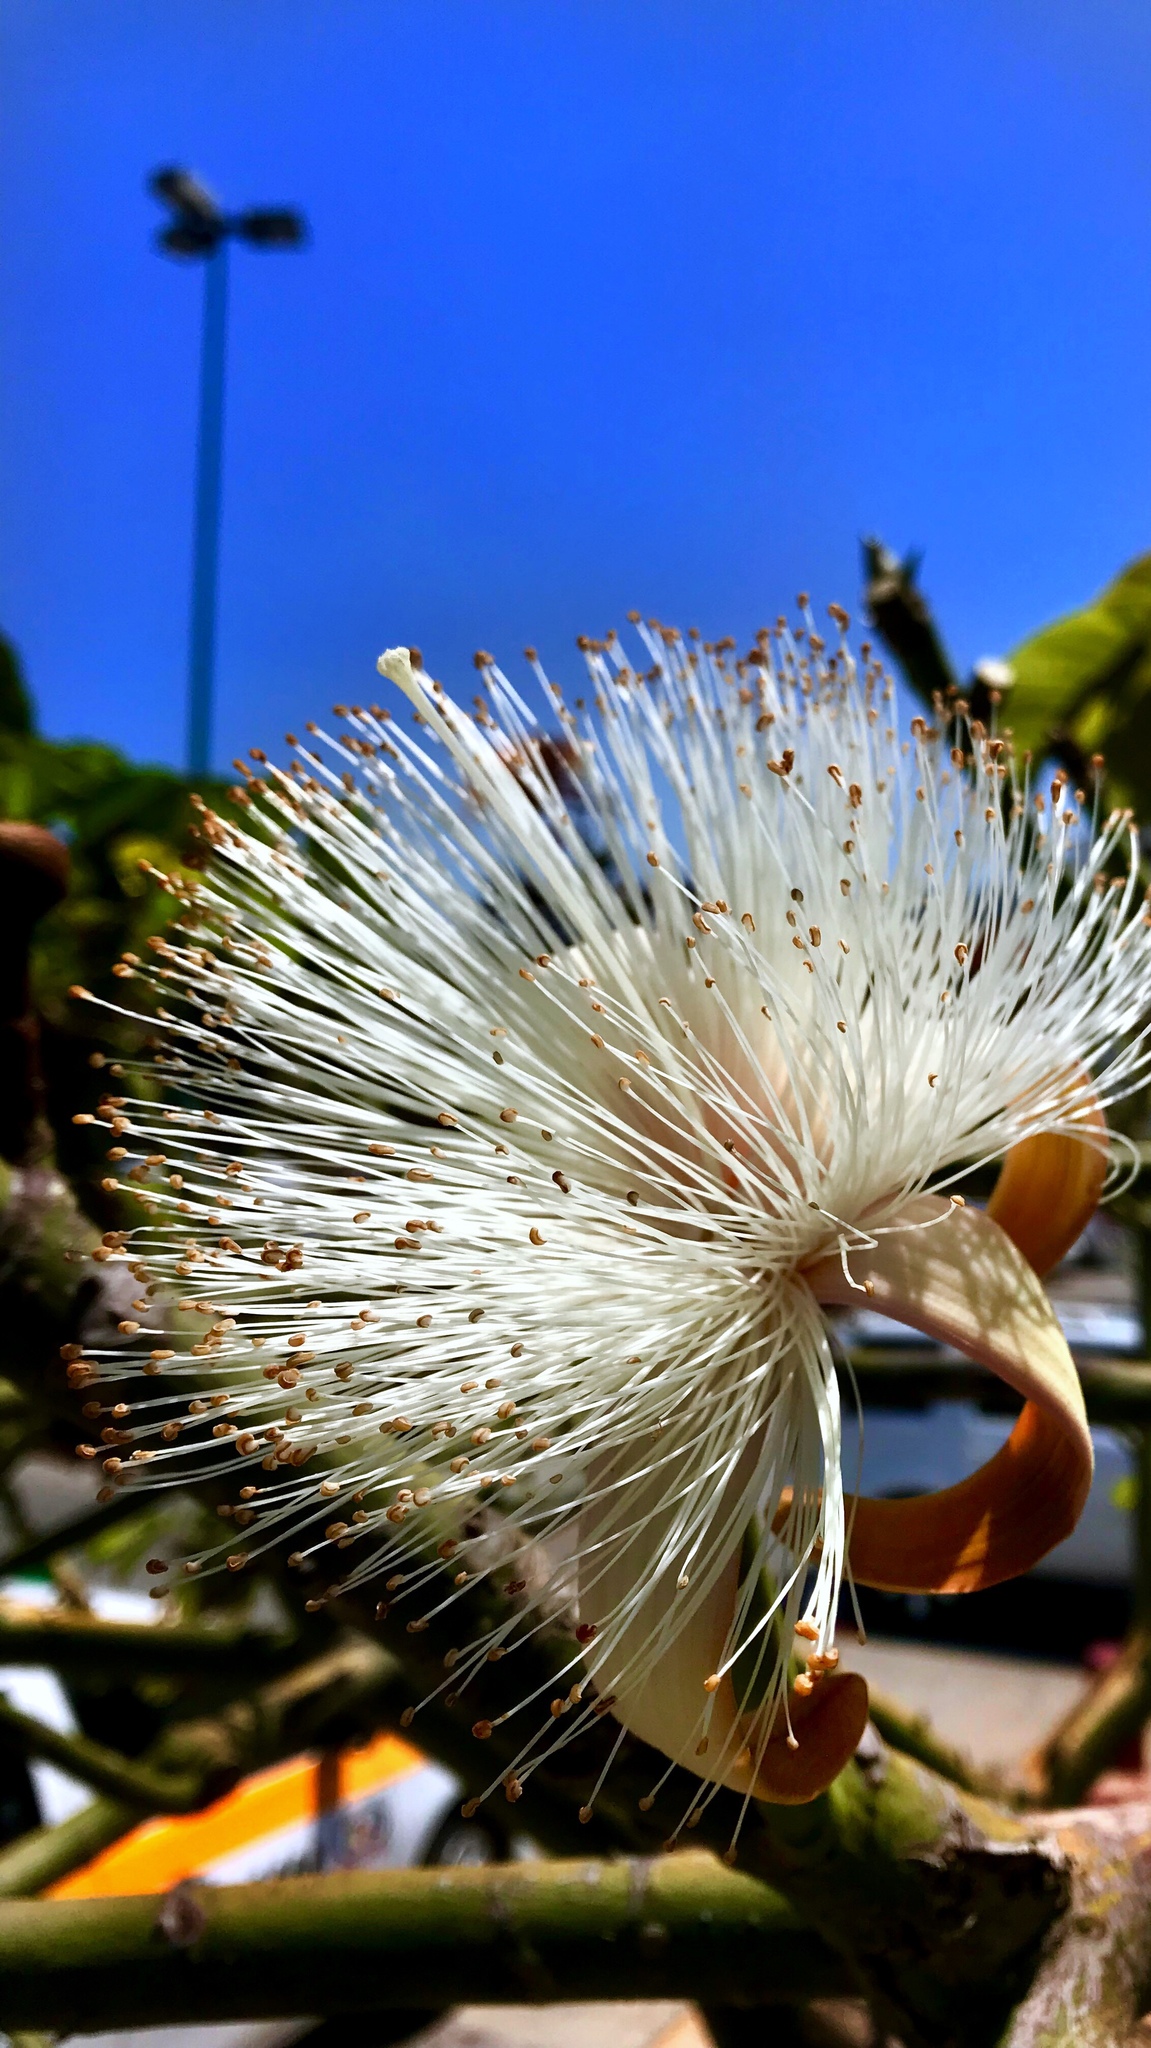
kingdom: Plantae
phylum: Tracheophyta
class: Magnoliopsida
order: Malvales
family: Malvaceae
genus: Pseudobombax
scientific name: Pseudobombax ellipticum
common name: Shaving-brush-tree
